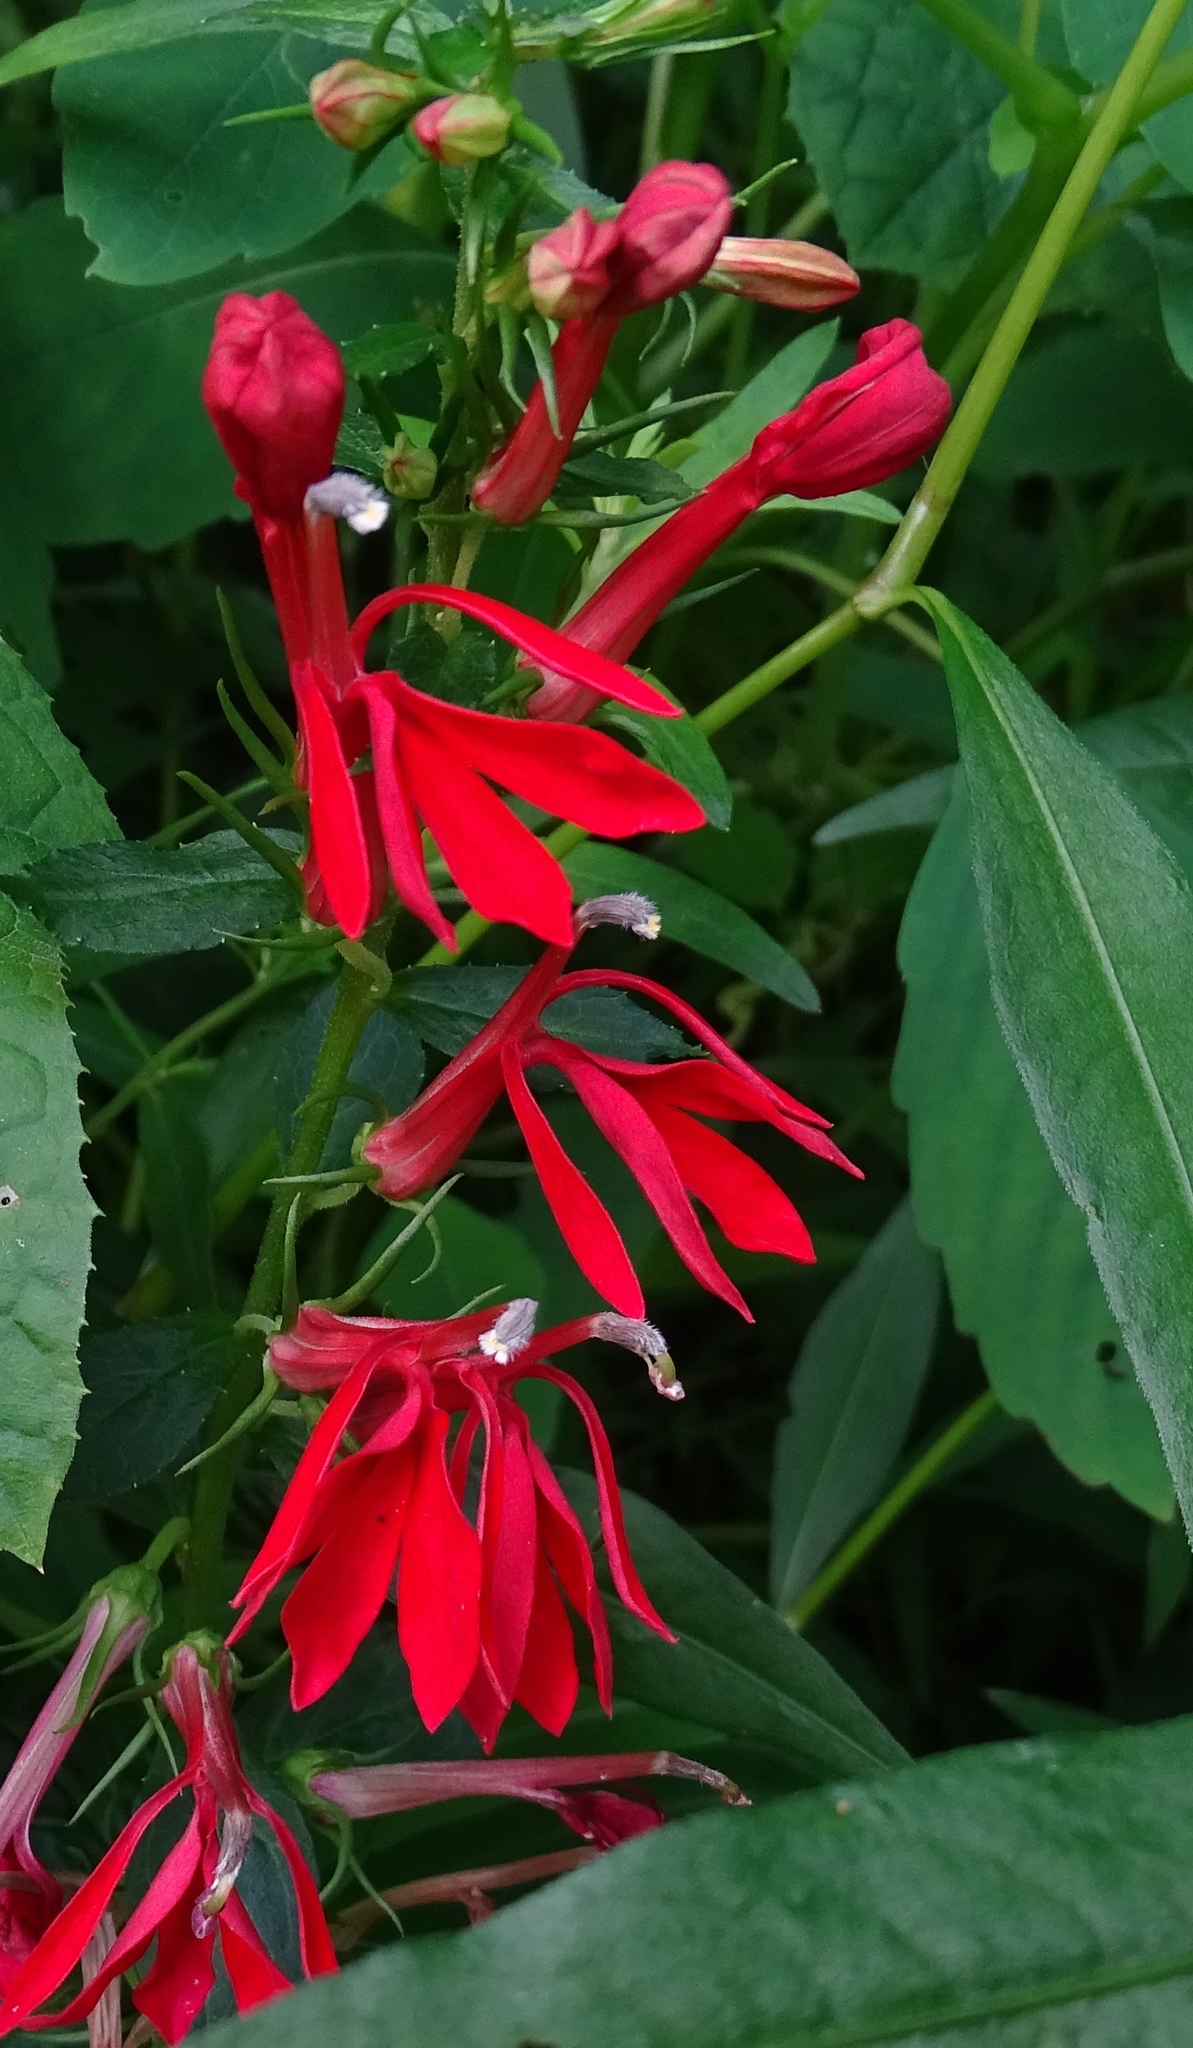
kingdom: Plantae
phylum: Tracheophyta
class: Magnoliopsida
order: Asterales
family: Campanulaceae
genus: Lobelia
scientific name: Lobelia cardinalis
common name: Cardinal flower
